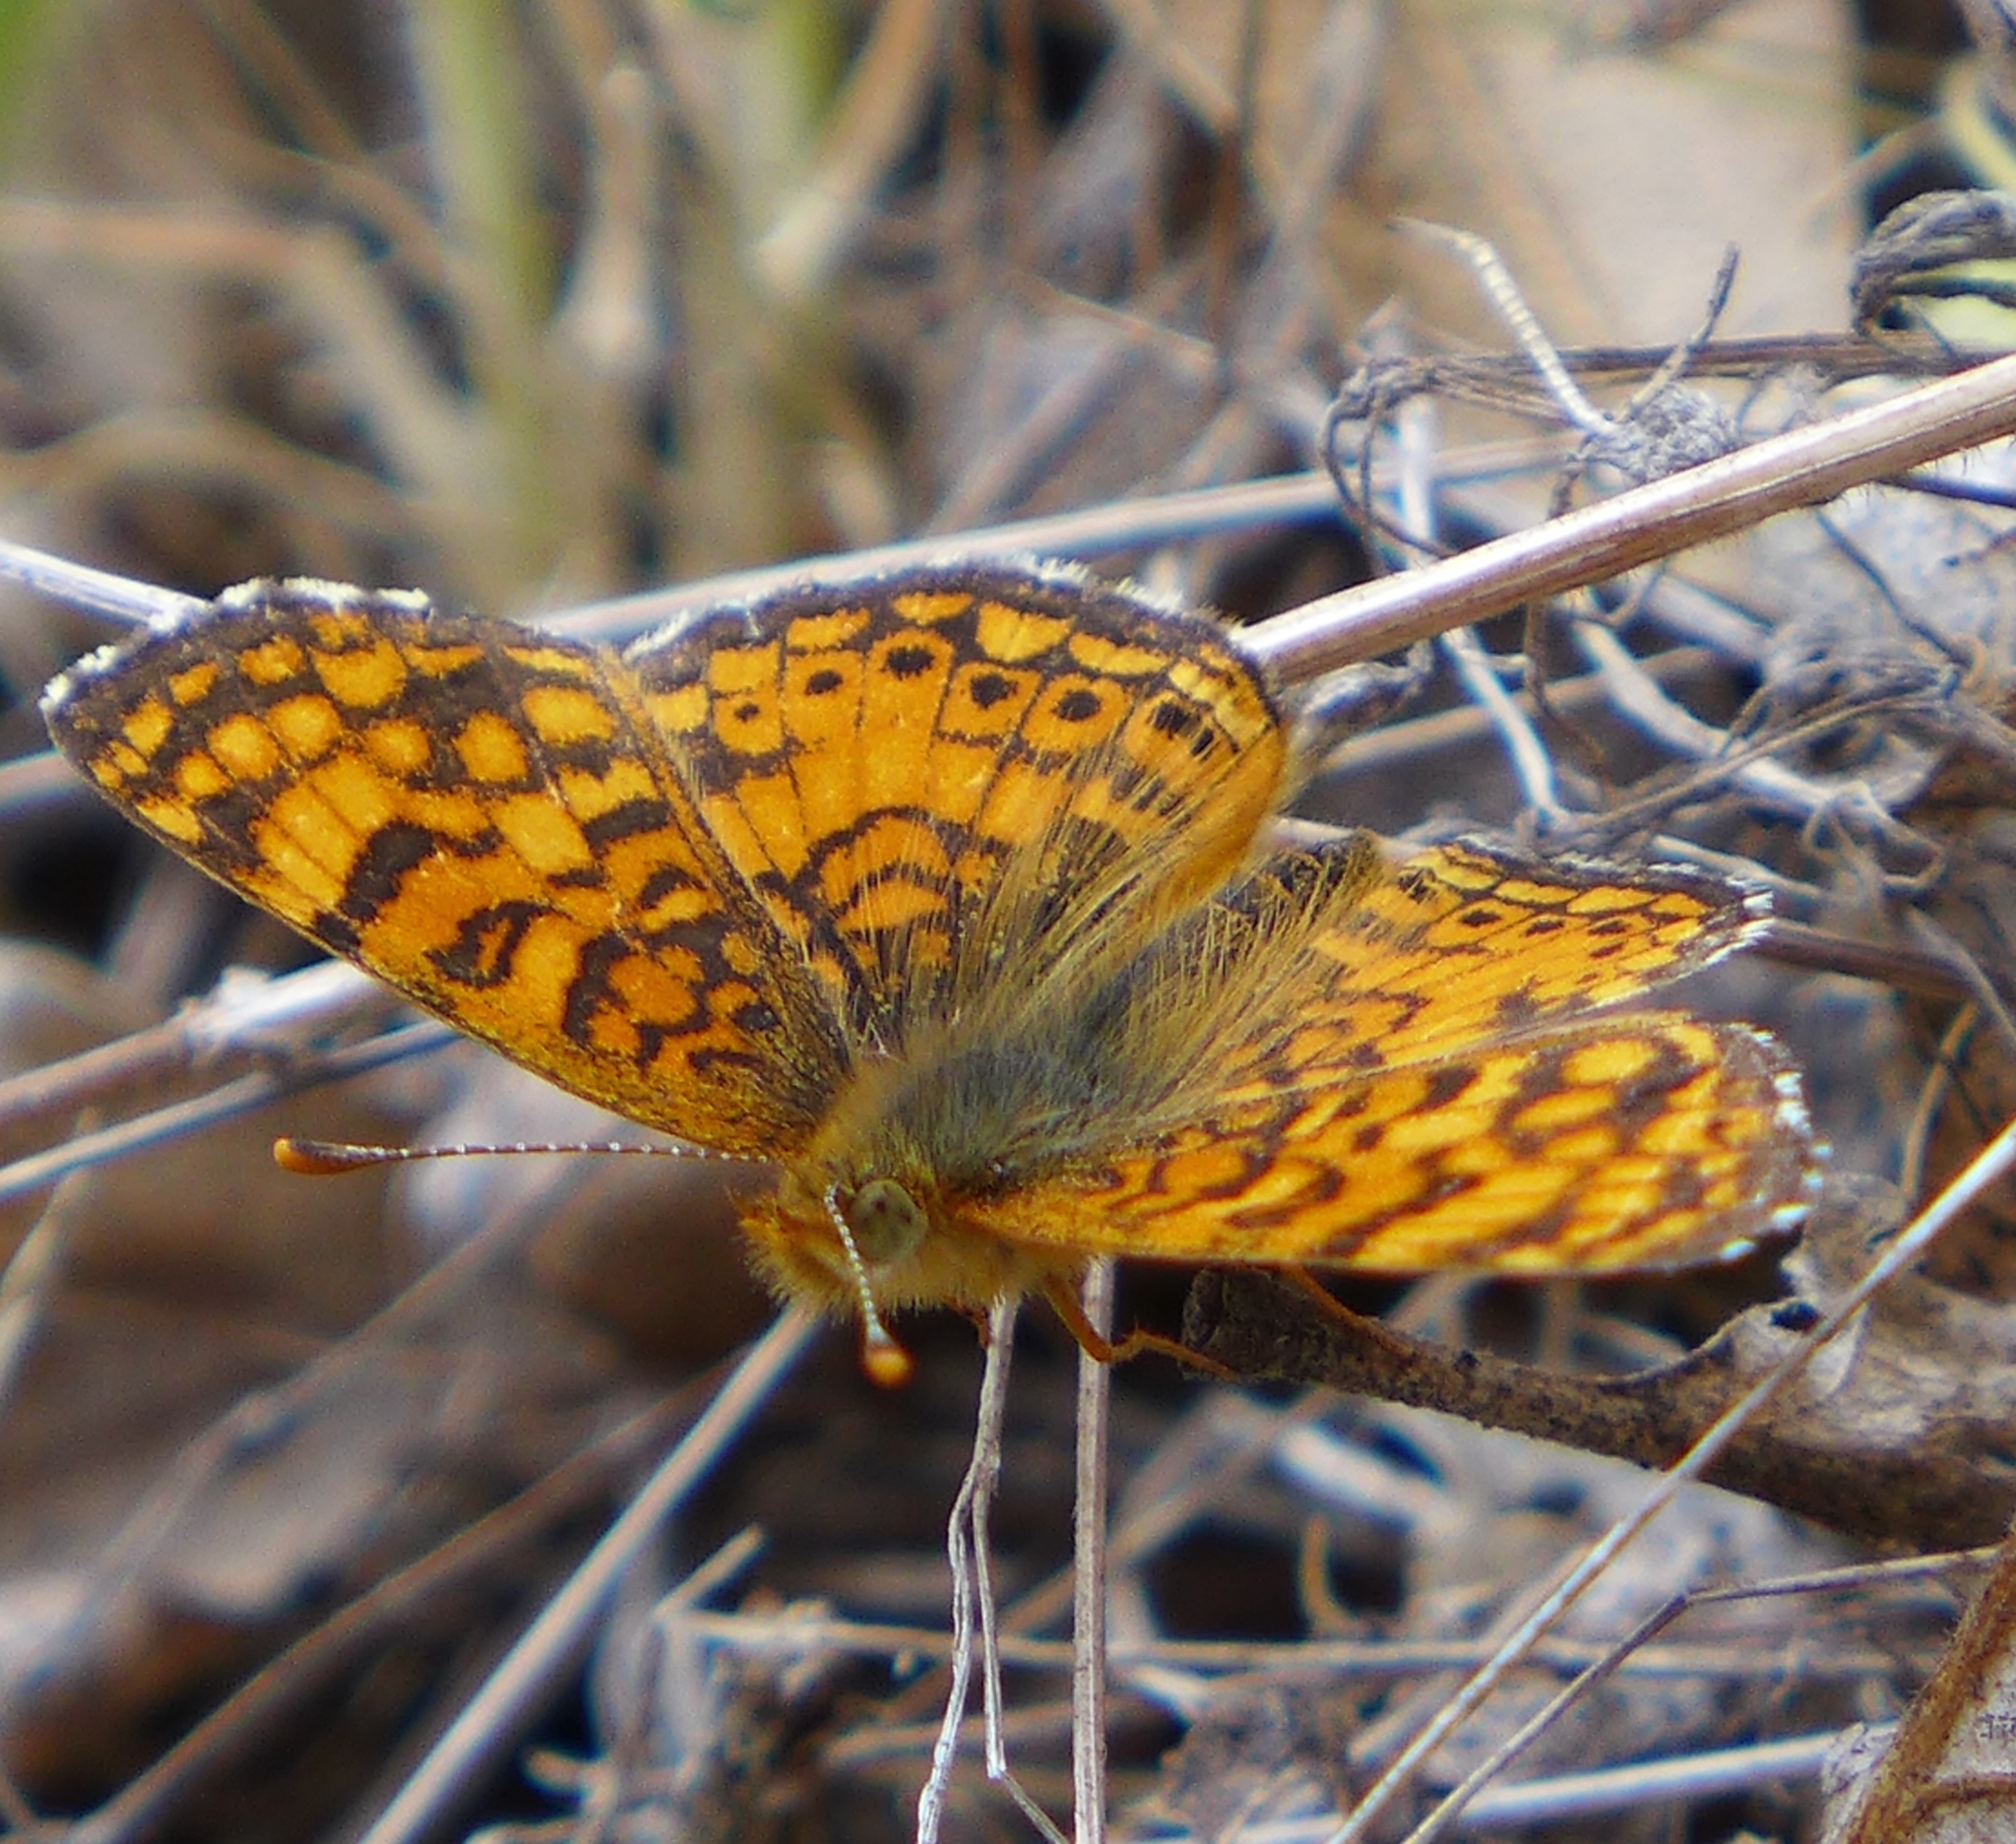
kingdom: Animalia
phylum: Arthropoda
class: Insecta
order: Lepidoptera
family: Nymphalidae
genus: Eresia
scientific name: Eresia aveyrona
